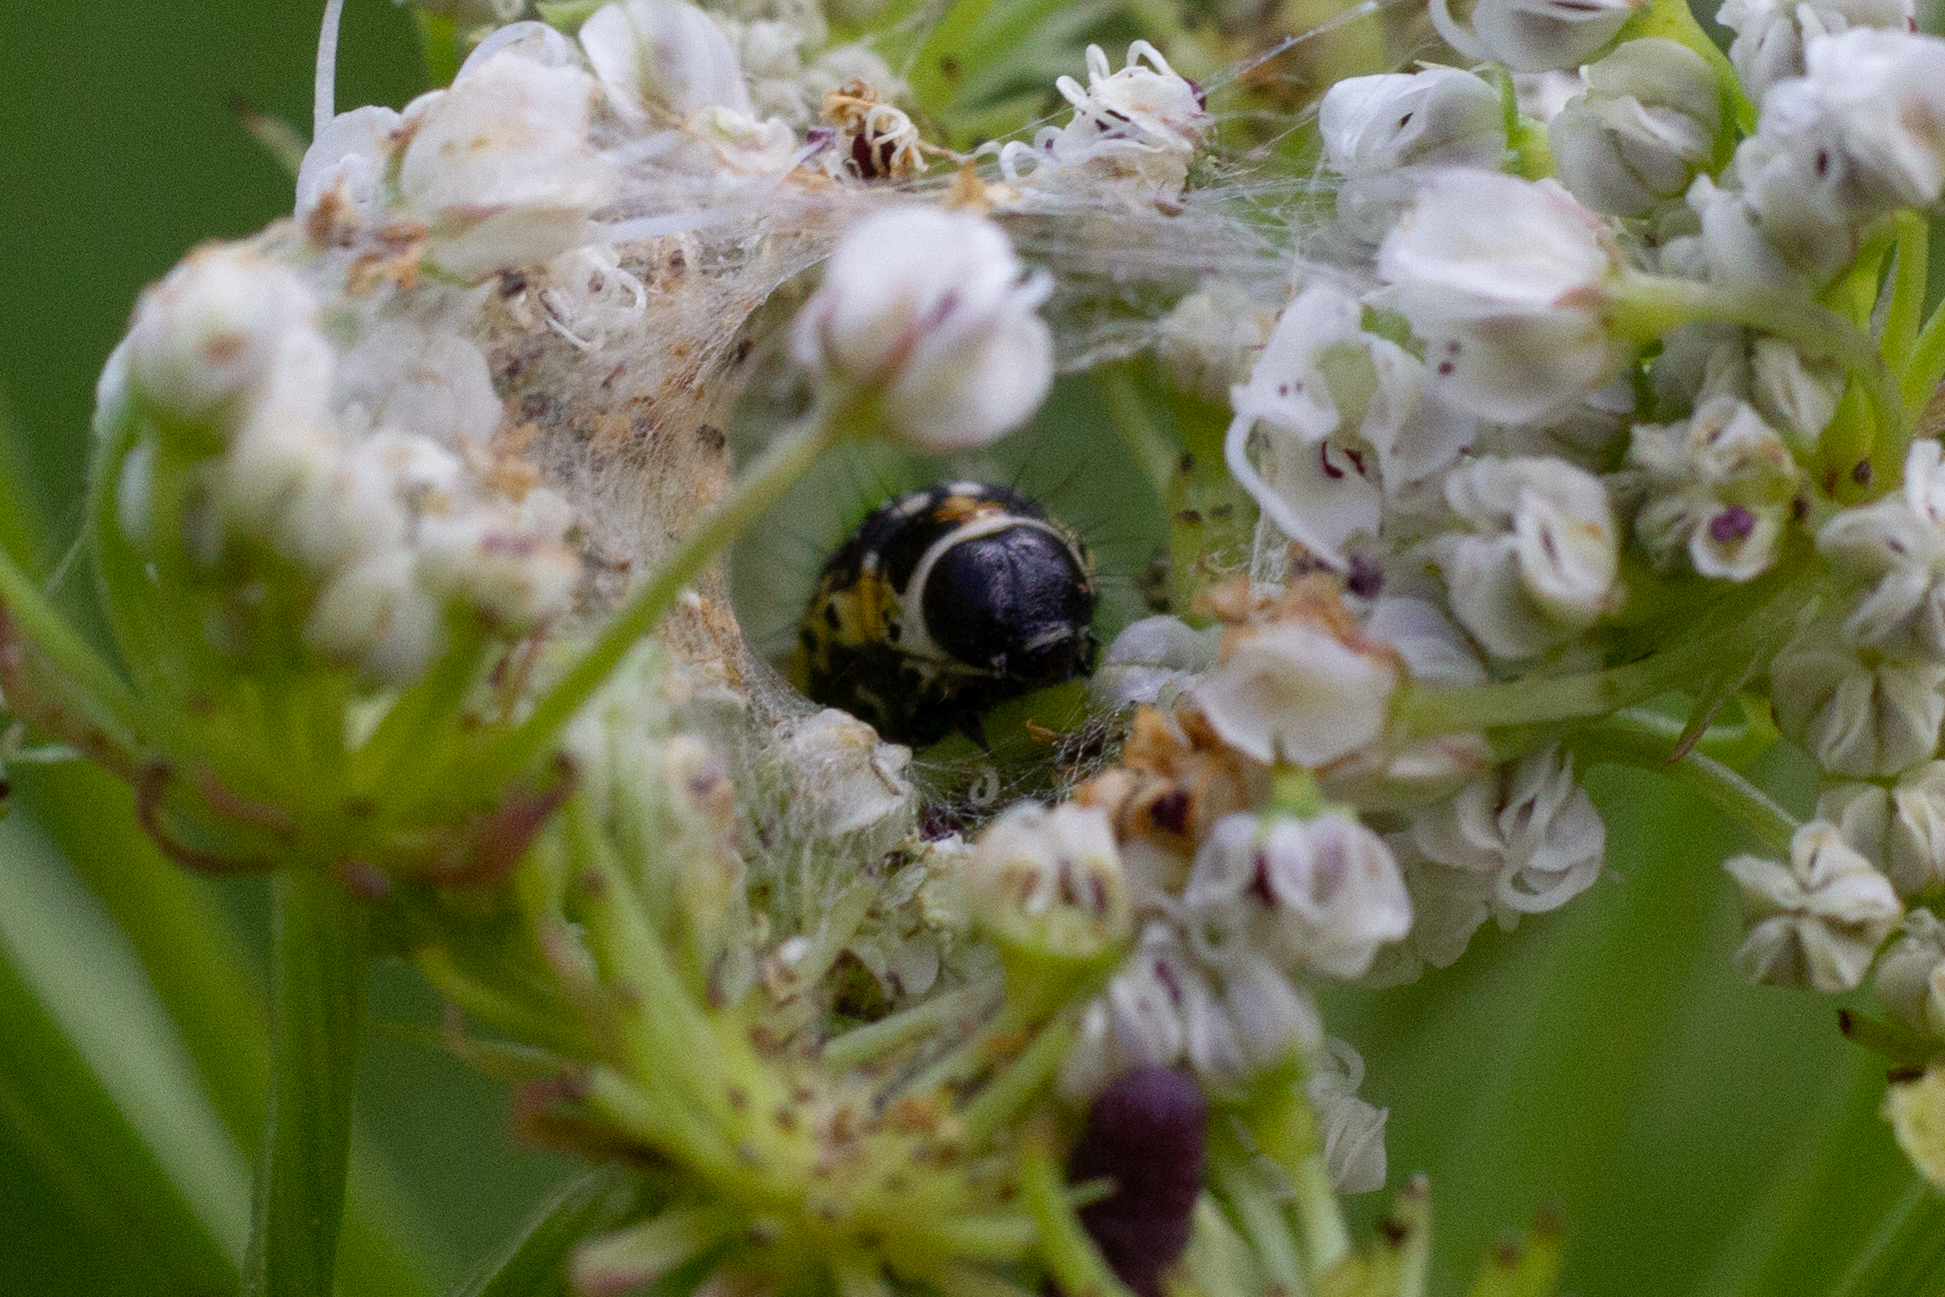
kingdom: Animalia
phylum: Arthropoda
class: Insecta
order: Lepidoptera
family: Depressariidae
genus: Depressaria
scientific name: Depressaria apiella
